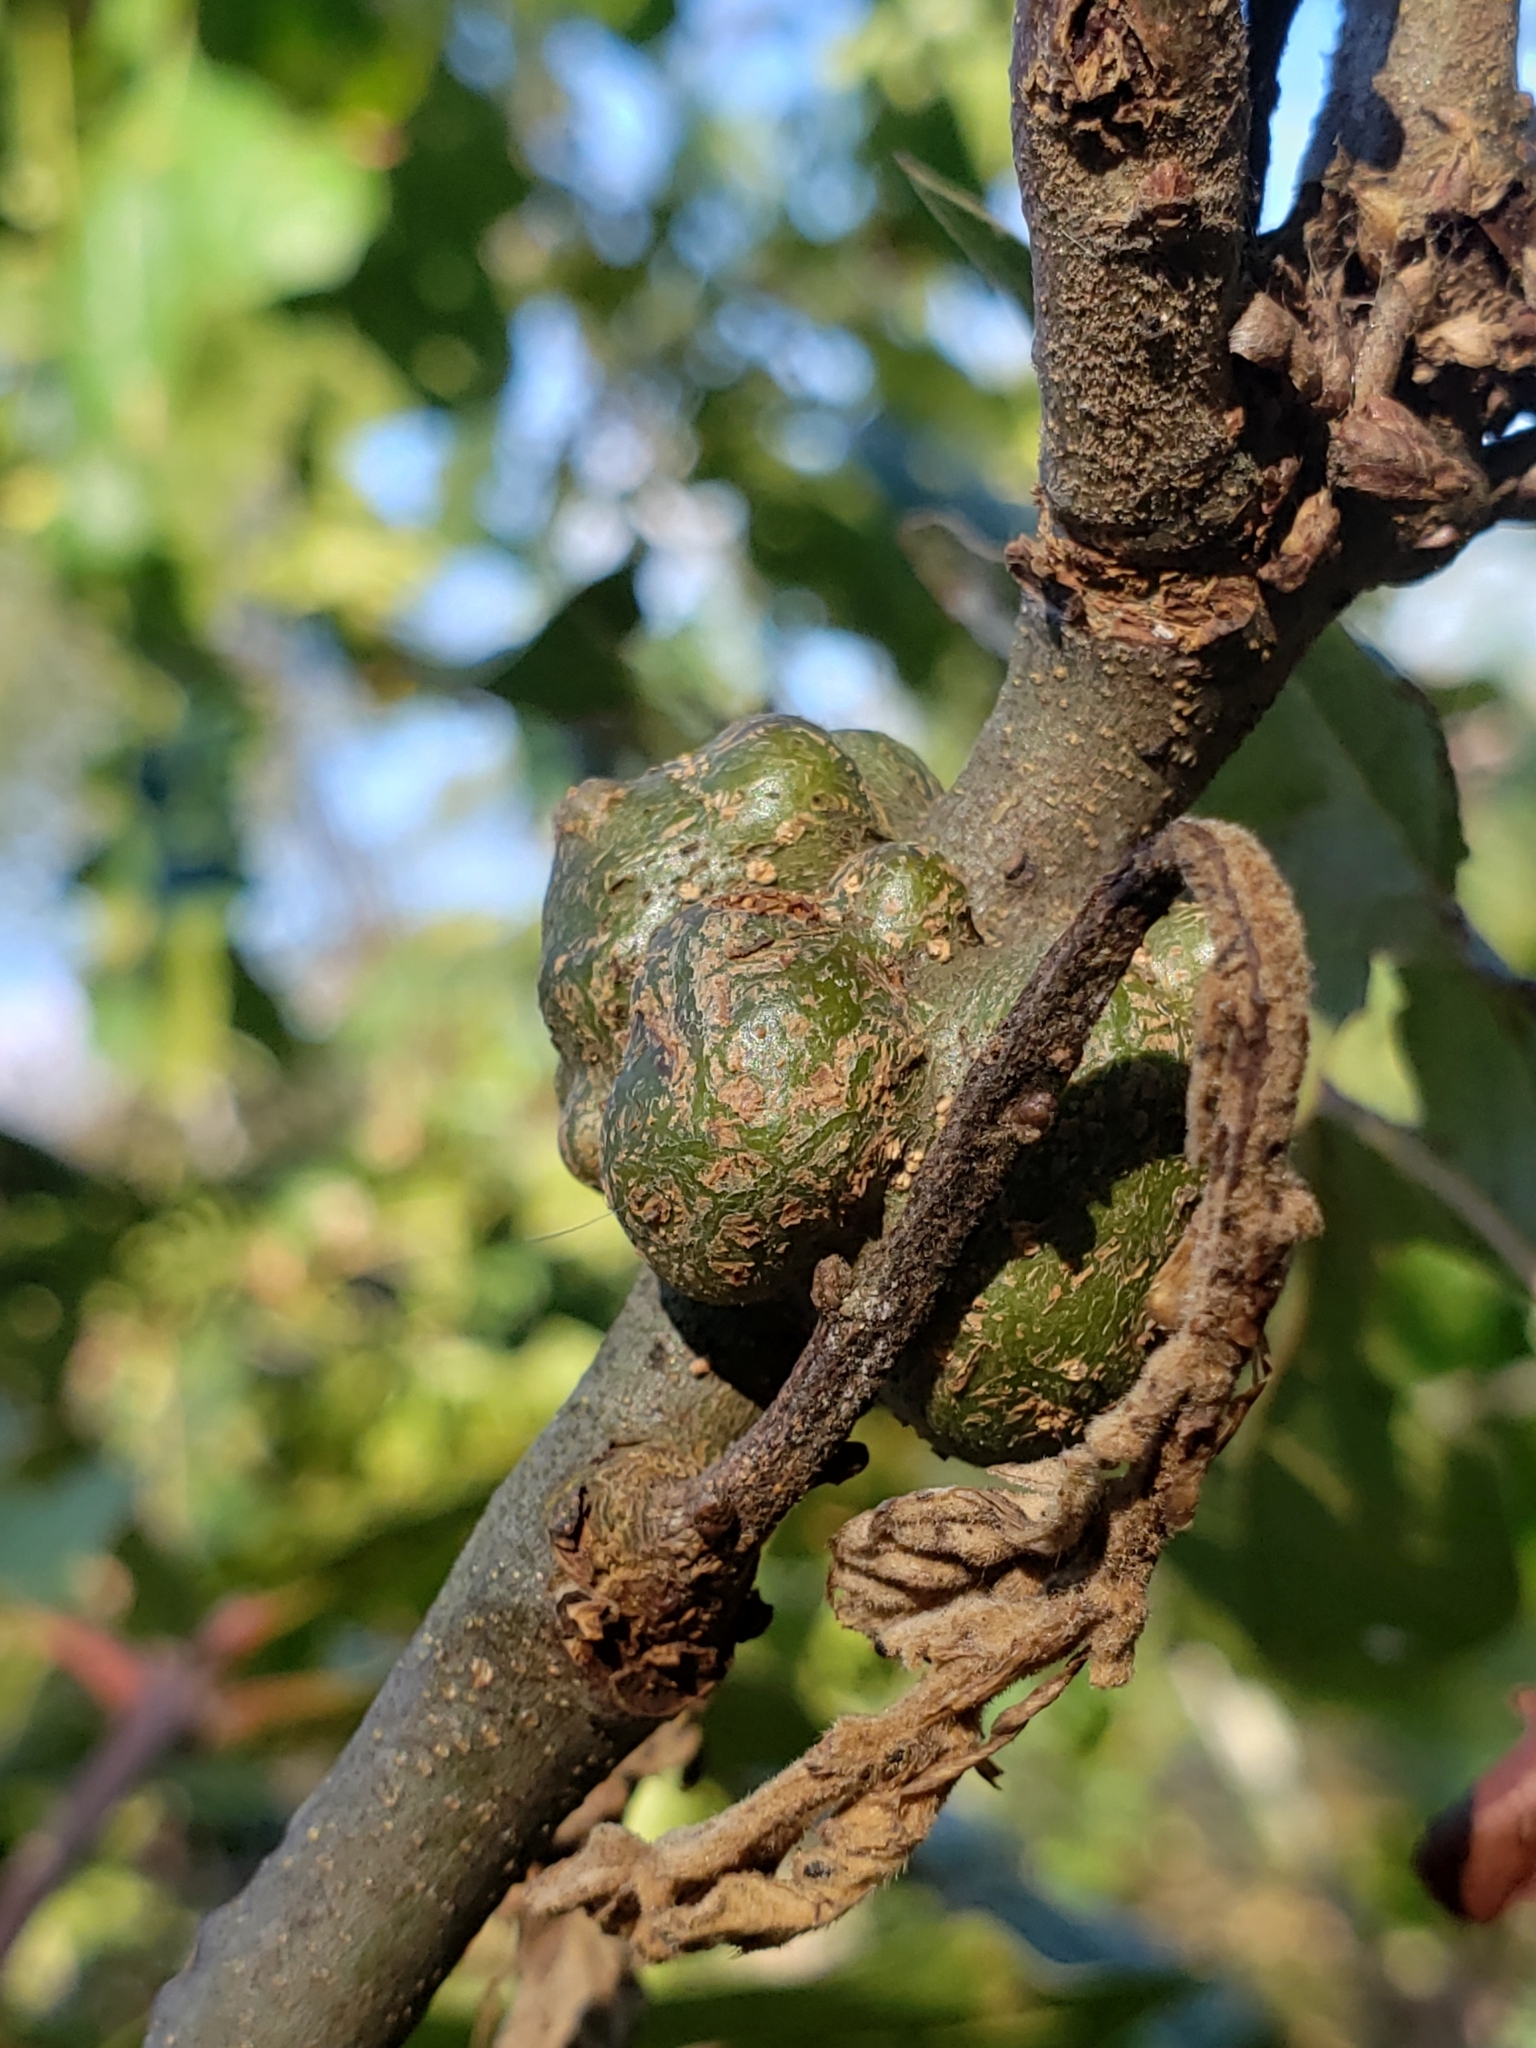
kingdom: Animalia
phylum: Arthropoda
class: Insecta
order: Hymenoptera
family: Cynipidae
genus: Callirhytis
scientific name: Callirhytis
